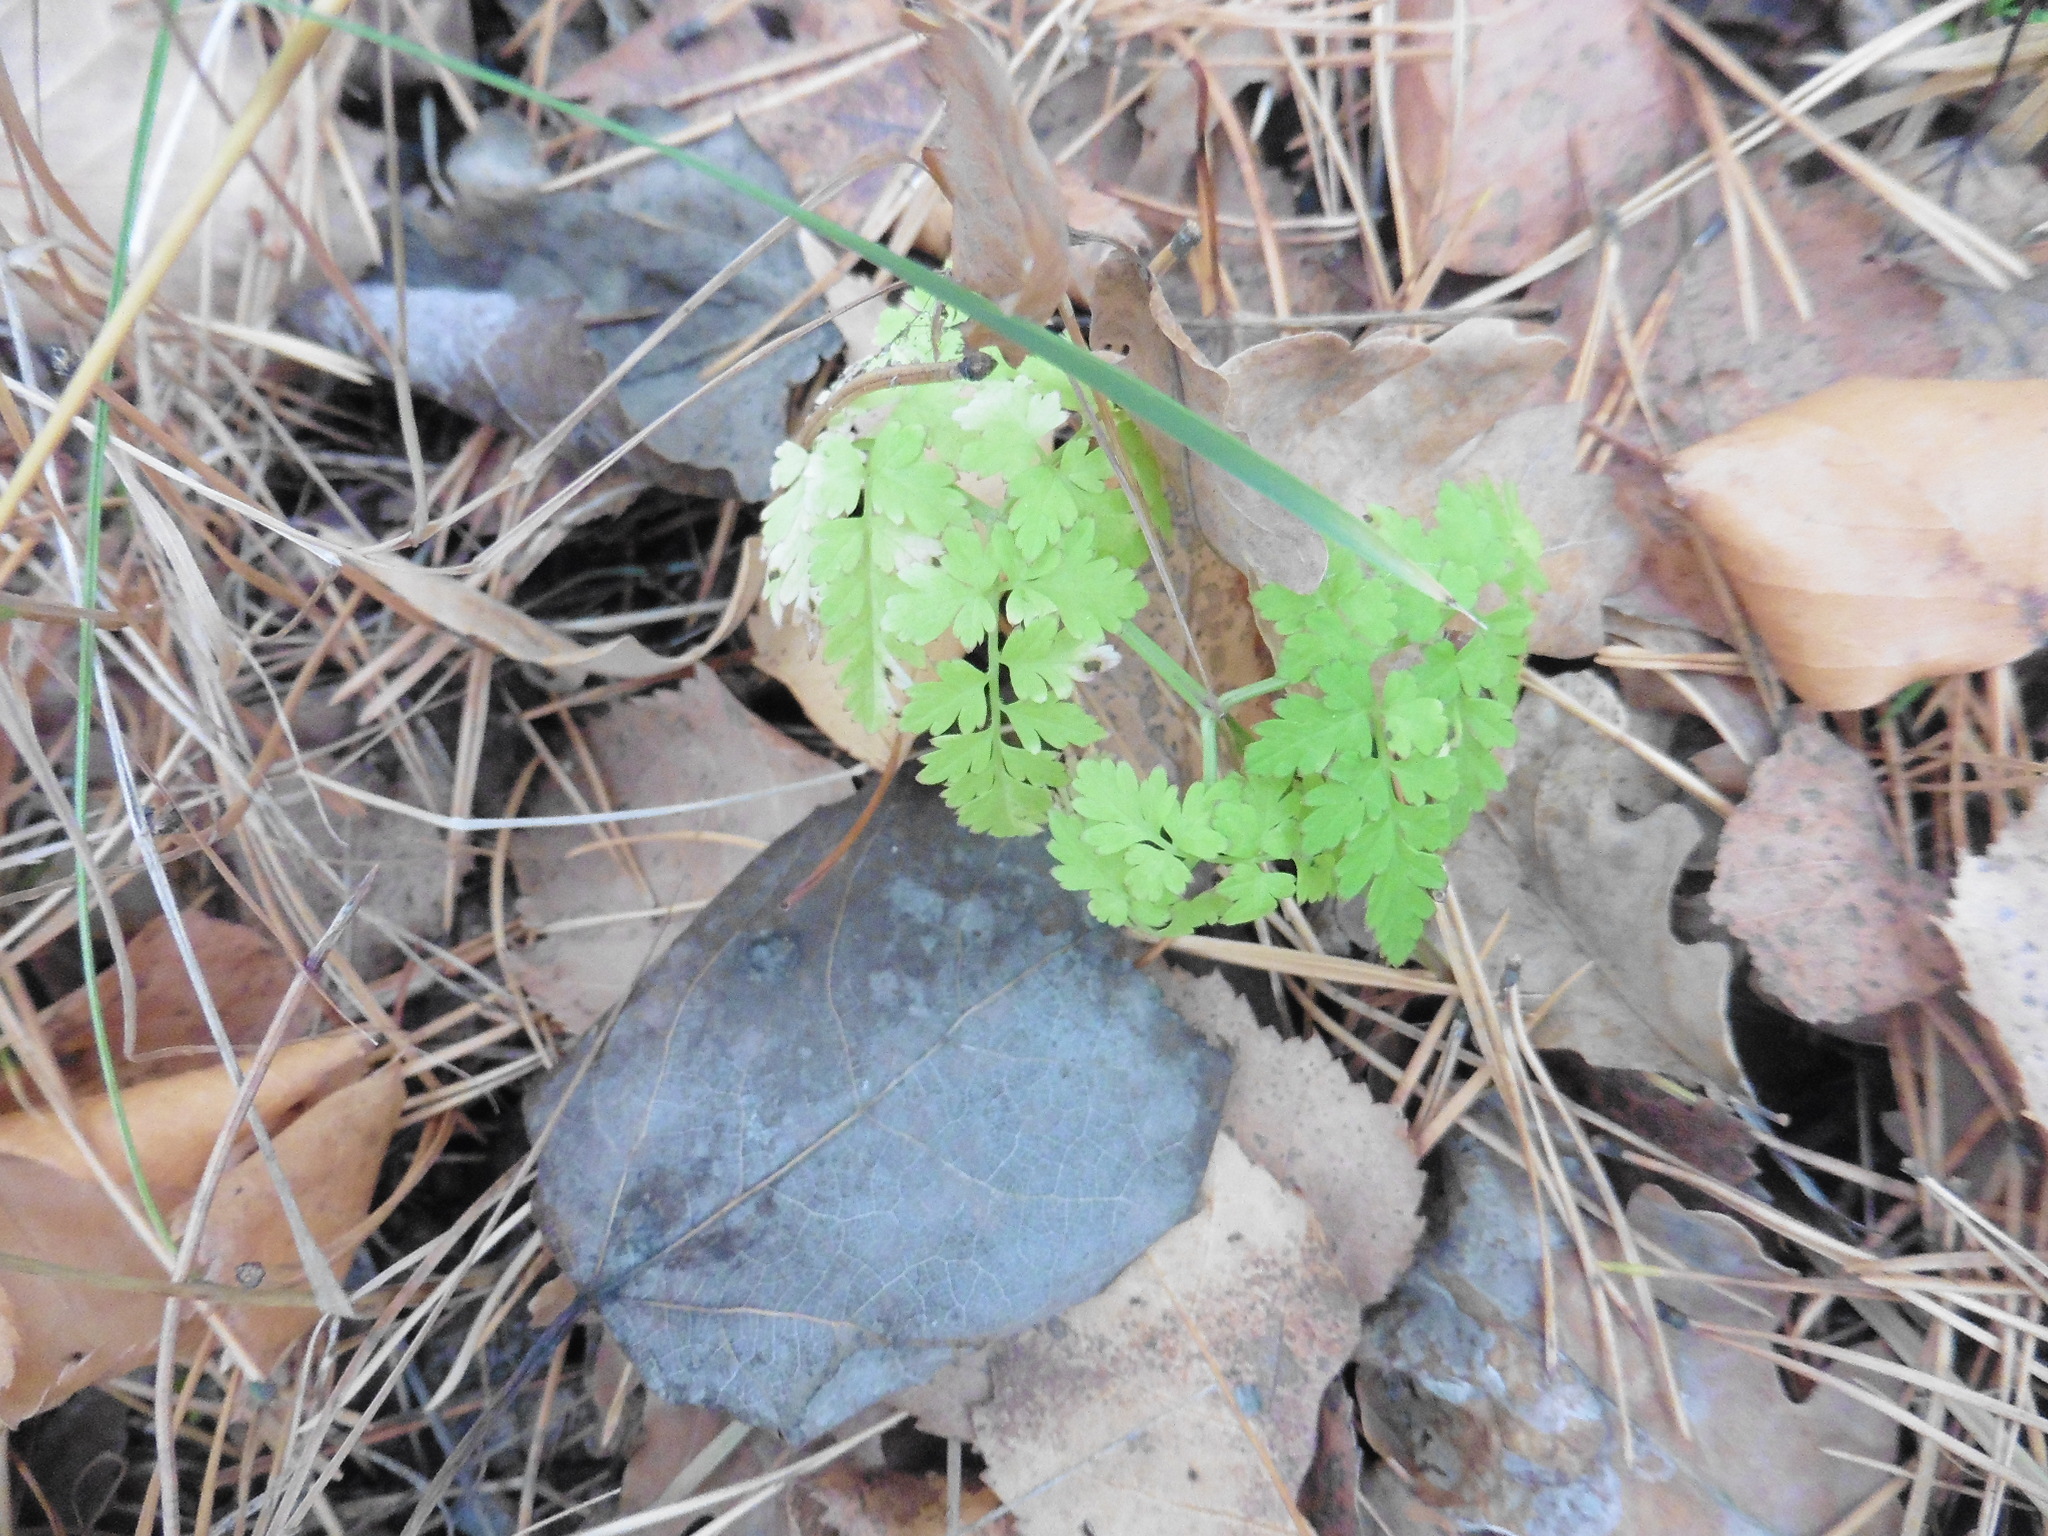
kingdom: Plantae
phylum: Tracheophyta
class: Magnoliopsida
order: Apiales
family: Apiaceae
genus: Anthriscus
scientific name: Anthriscus sylvestris
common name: Cow parsley
